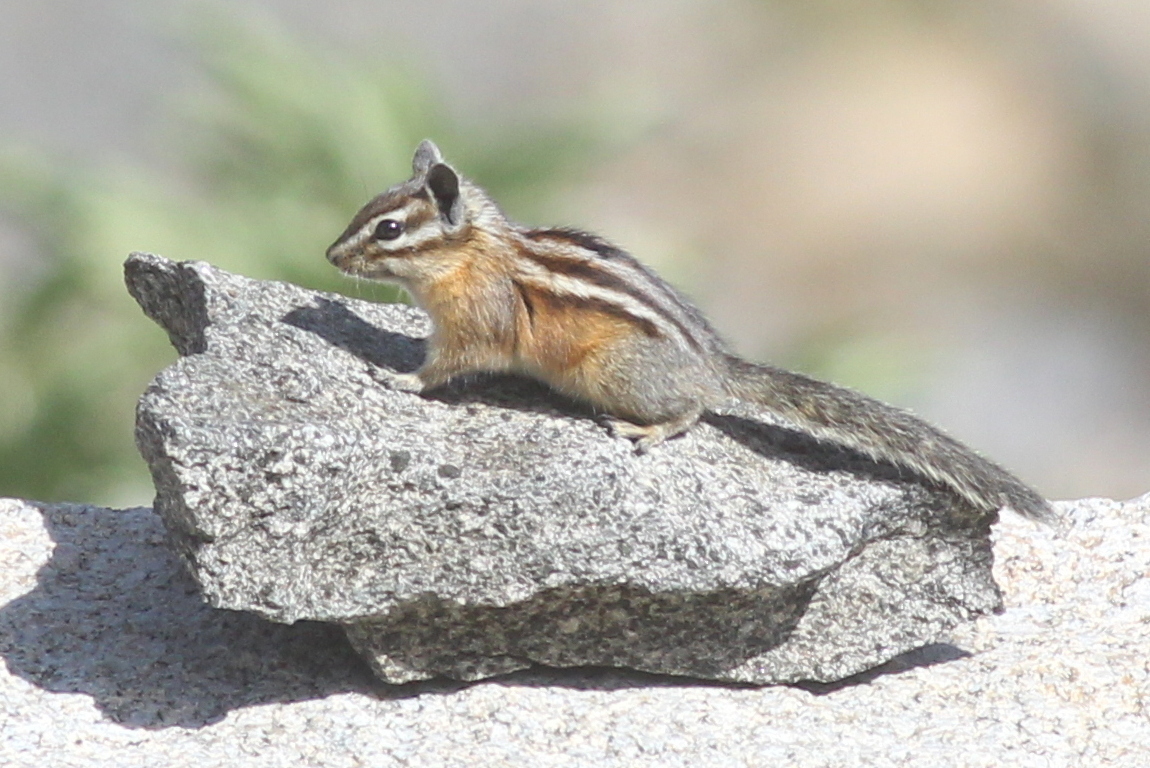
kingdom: Animalia
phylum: Chordata
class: Mammalia
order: Rodentia
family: Sciuridae
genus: Tamias
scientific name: Tamias amoenus
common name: Yellow-pine chipmunk
